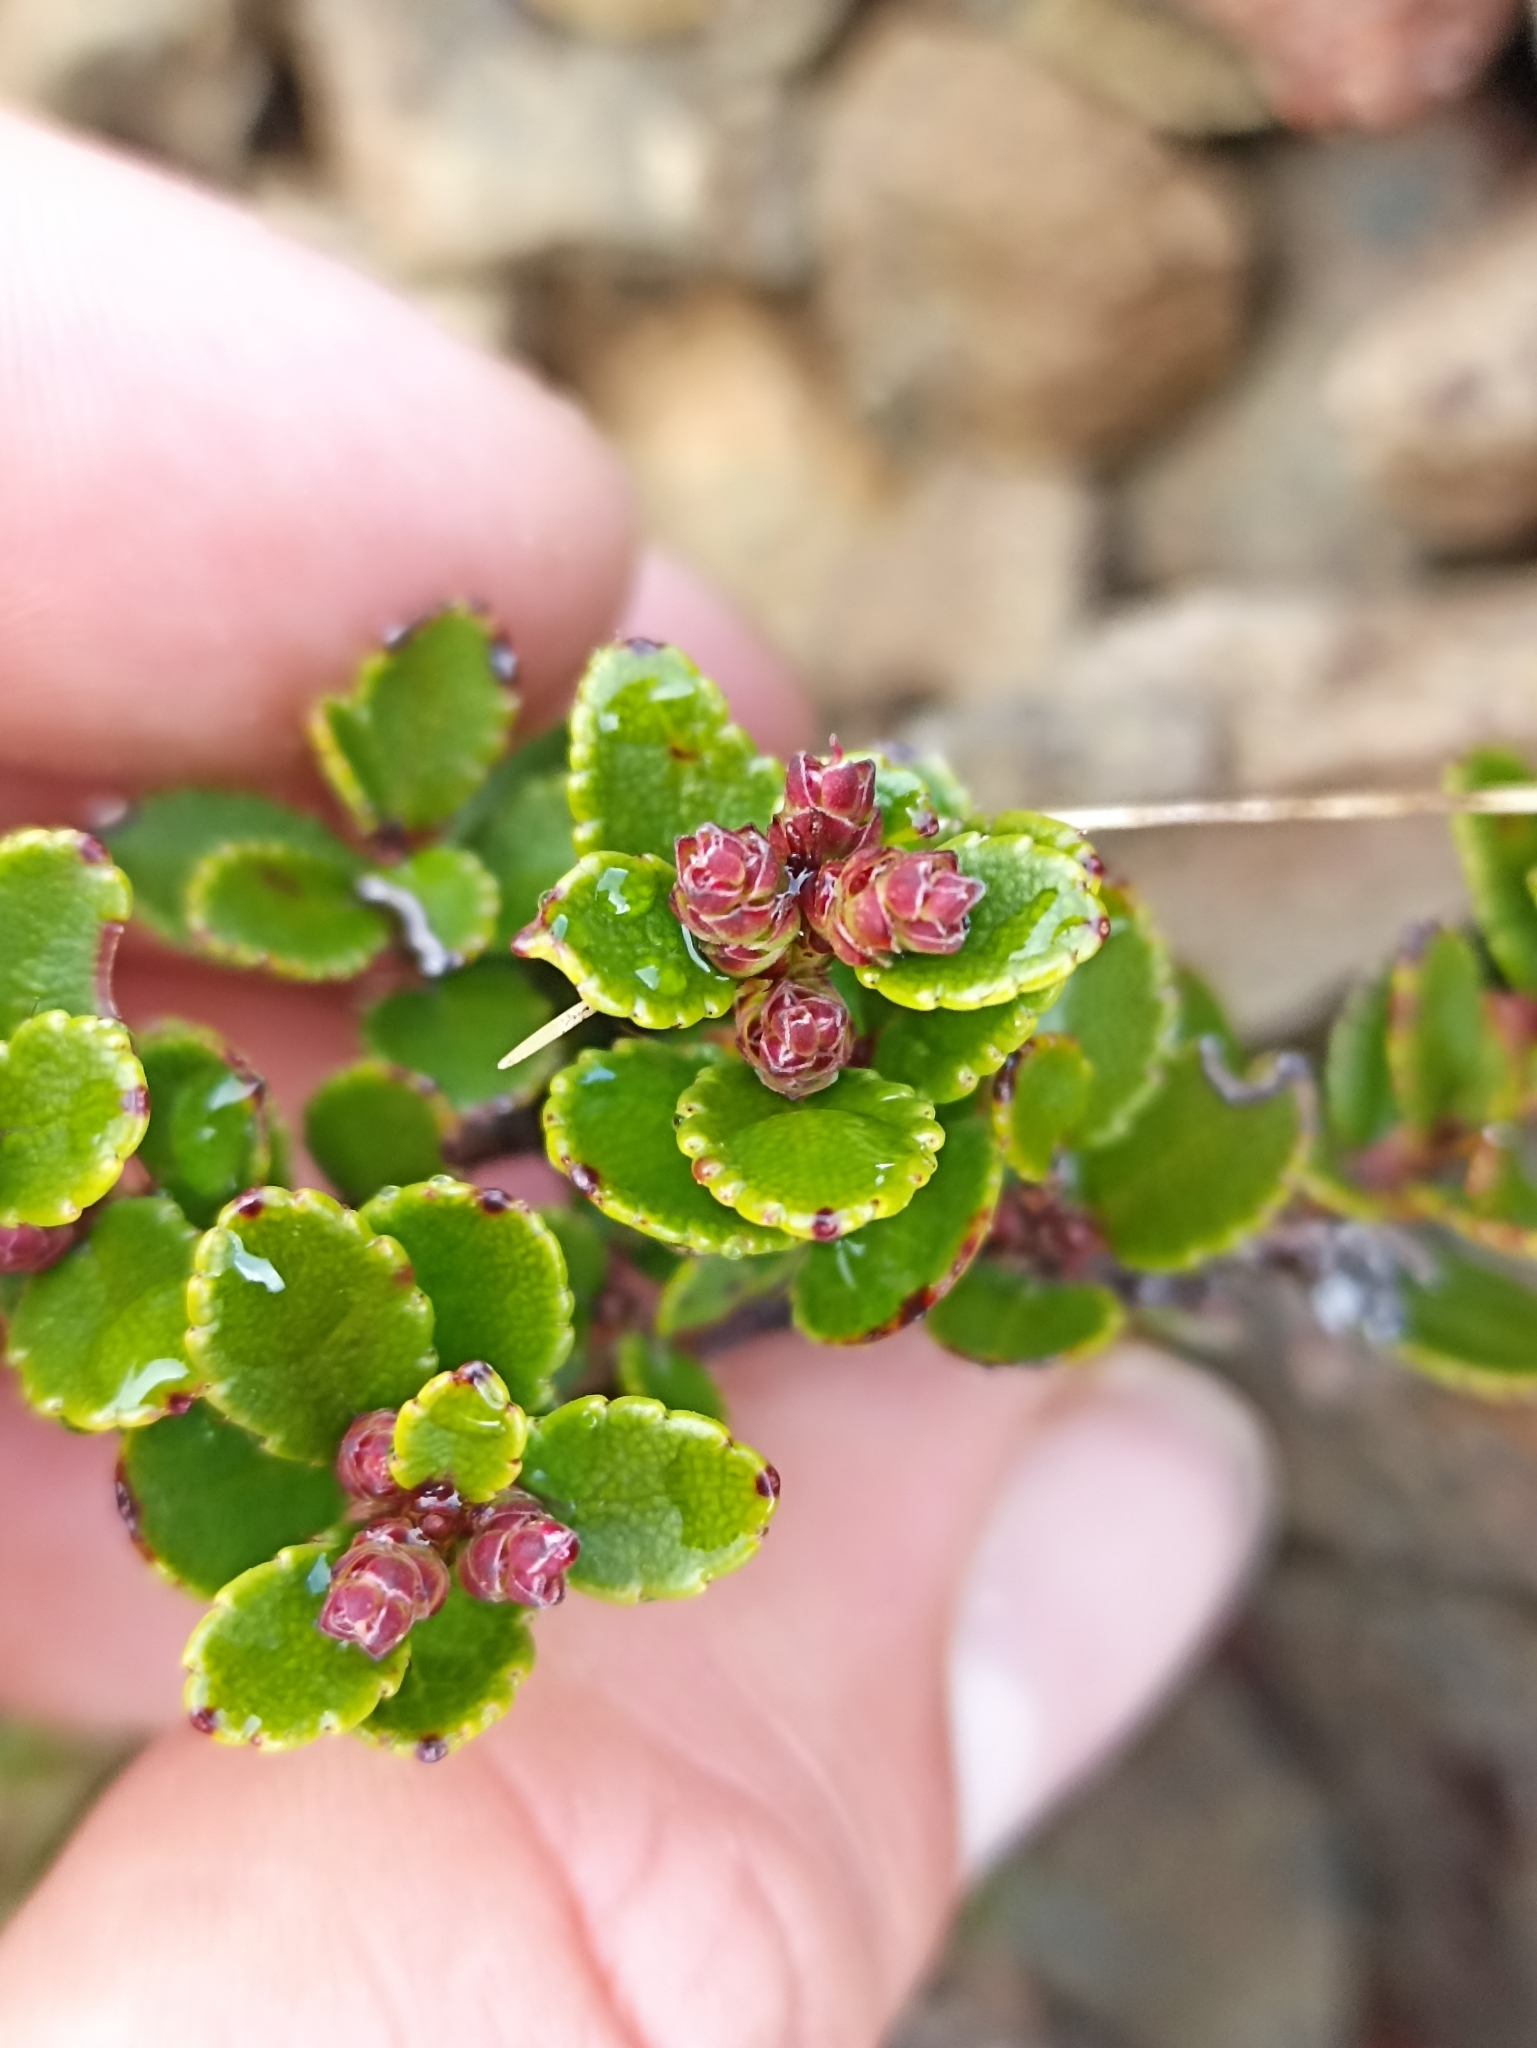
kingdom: Plantae
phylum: Tracheophyta
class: Magnoliopsida
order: Ericales
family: Ericaceae
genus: Gaultheria
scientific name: Gaultheria crassa
